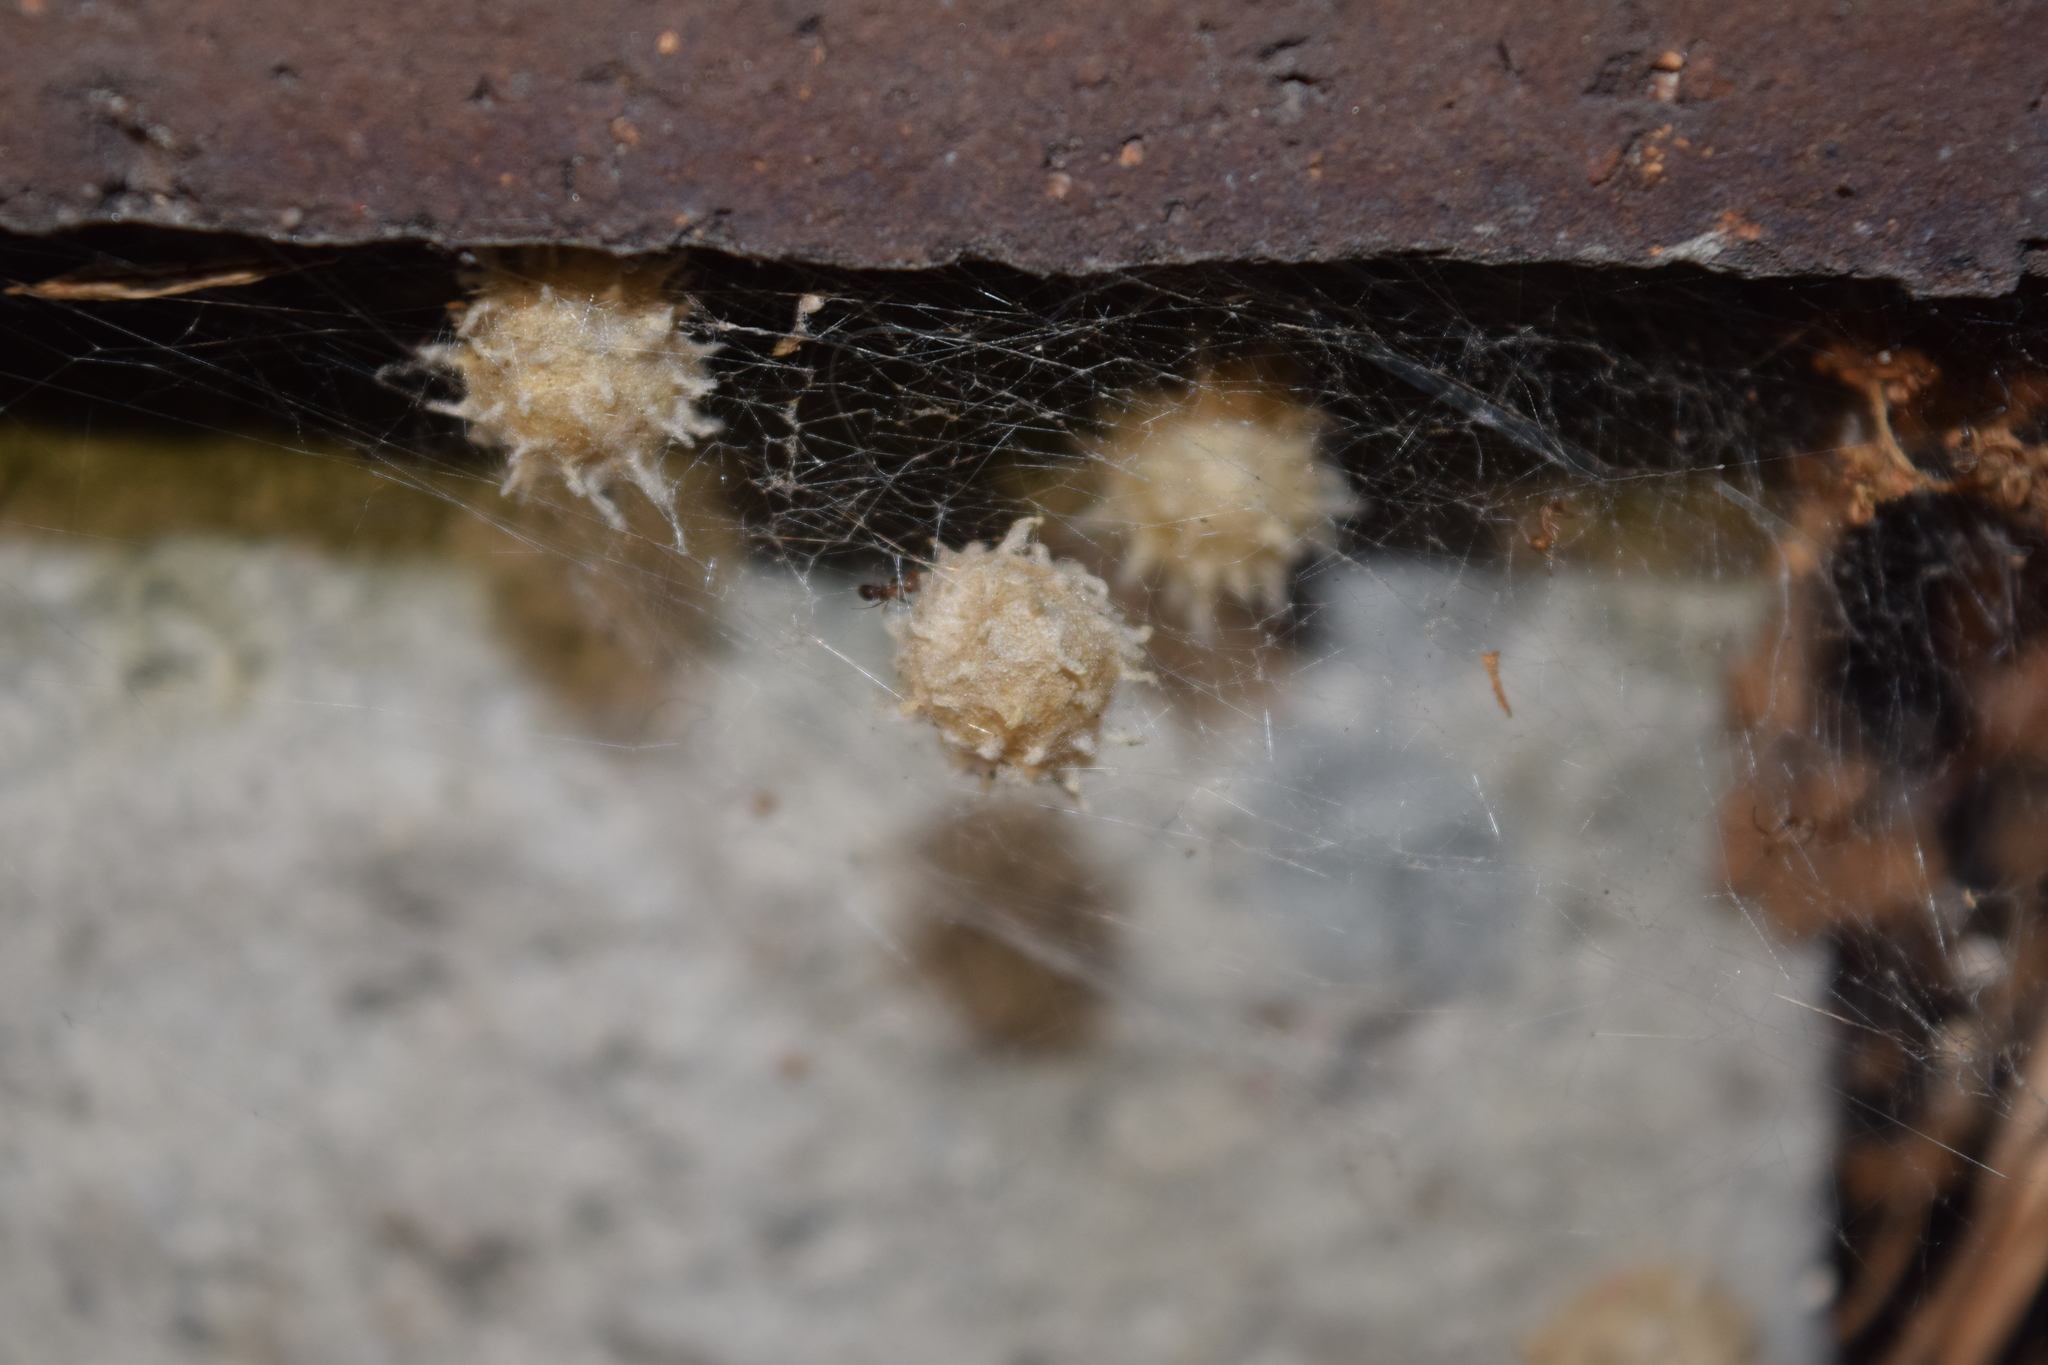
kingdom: Animalia
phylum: Arthropoda
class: Arachnida
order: Araneae
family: Theridiidae
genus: Latrodectus
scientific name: Latrodectus geometricus
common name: Brown widow spider
